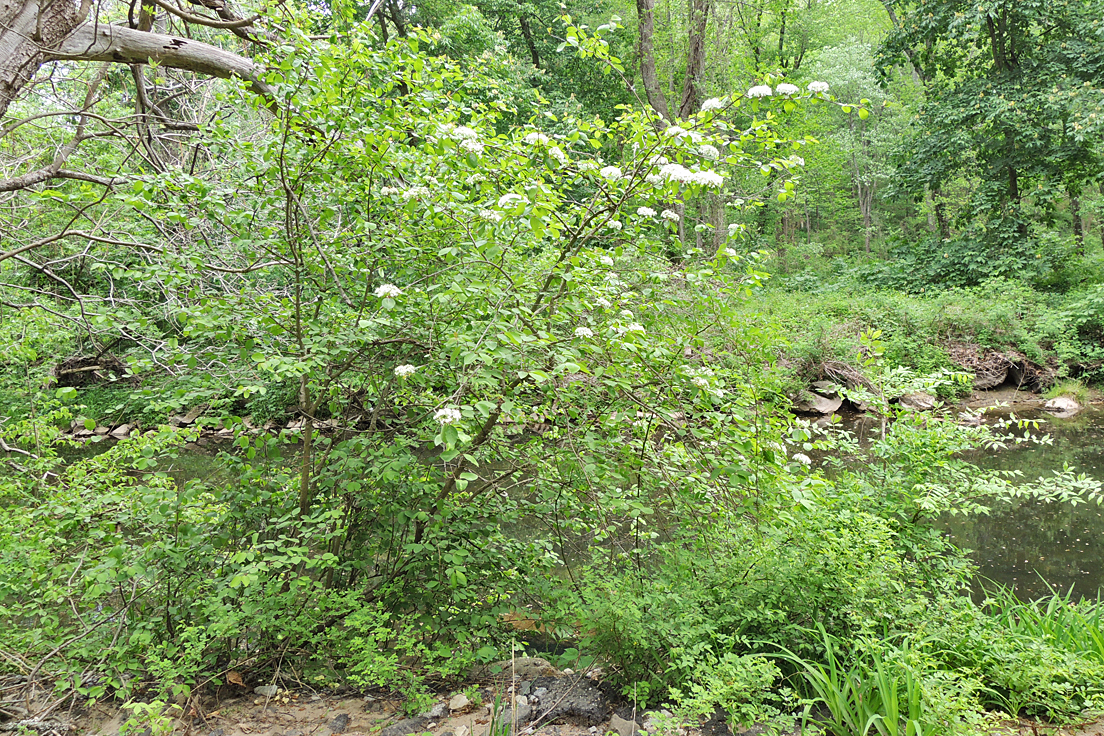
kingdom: Plantae
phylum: Tracheophyta
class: Magnoliopsida
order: Dipsacales
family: Viburnaceae
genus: Viburnum
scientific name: Viburnum prunifolium
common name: Black haw
